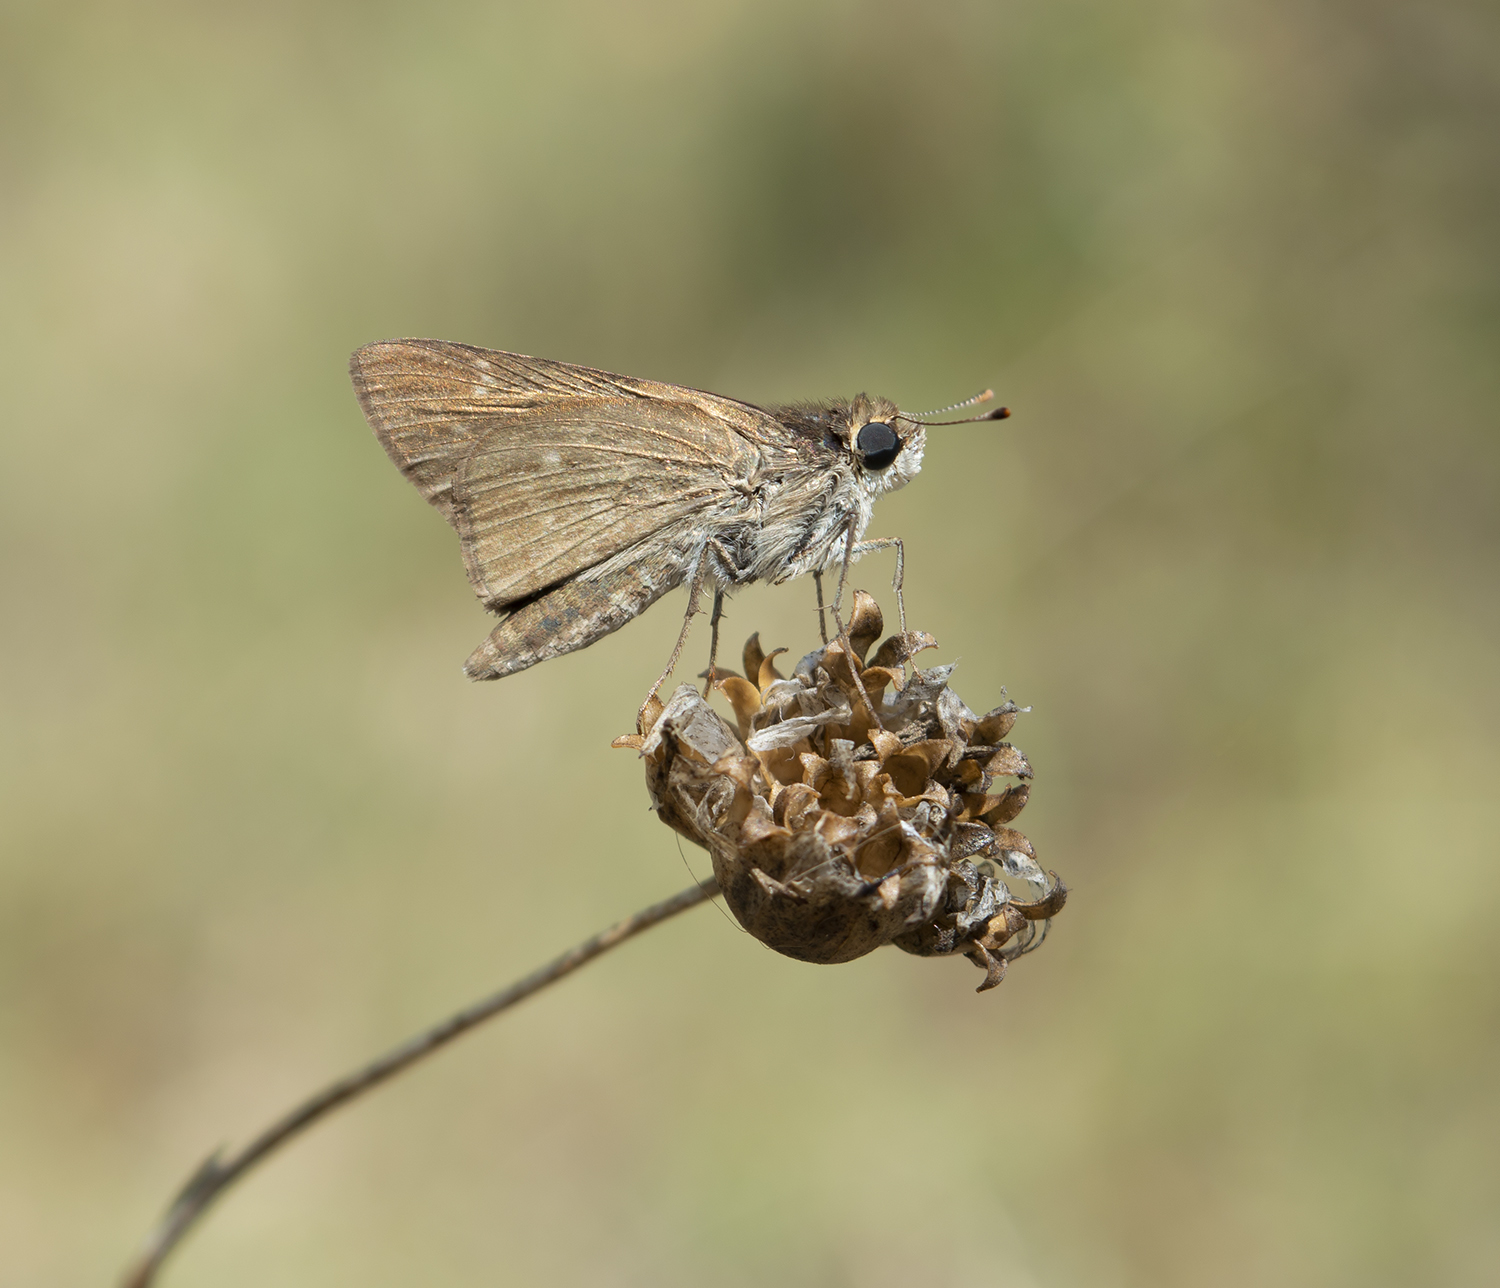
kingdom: Animalia
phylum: Arthropoda
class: Insecta
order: Lepidoptera
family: Hesperiidae
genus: Gegenes
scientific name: Gegenes pumilio
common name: Pigmy skipper
